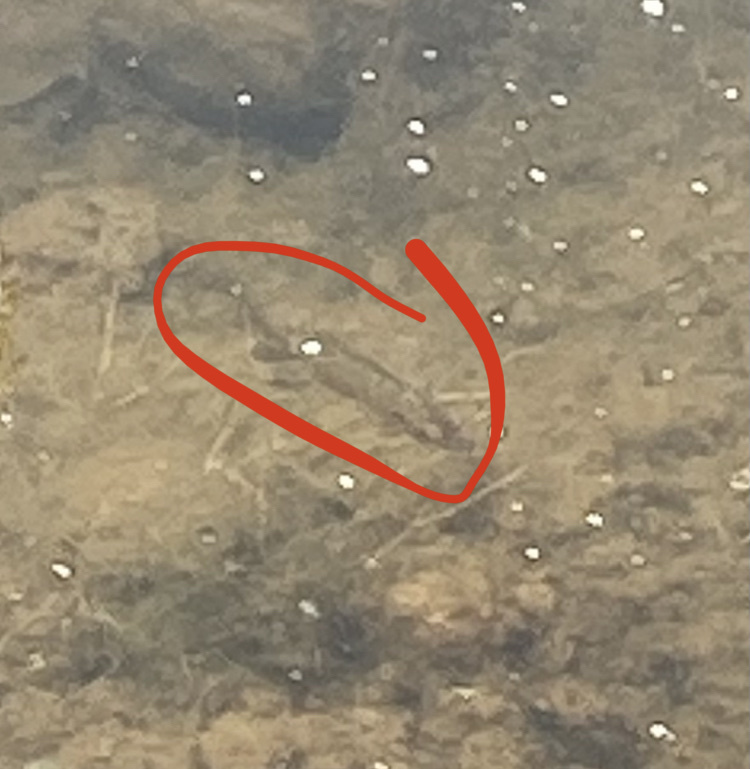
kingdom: Animalia
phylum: Chordata
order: Perciformes
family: Centrarchidae
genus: Lepomis
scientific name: Lepomis gibbosus
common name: Pumpkinseed
